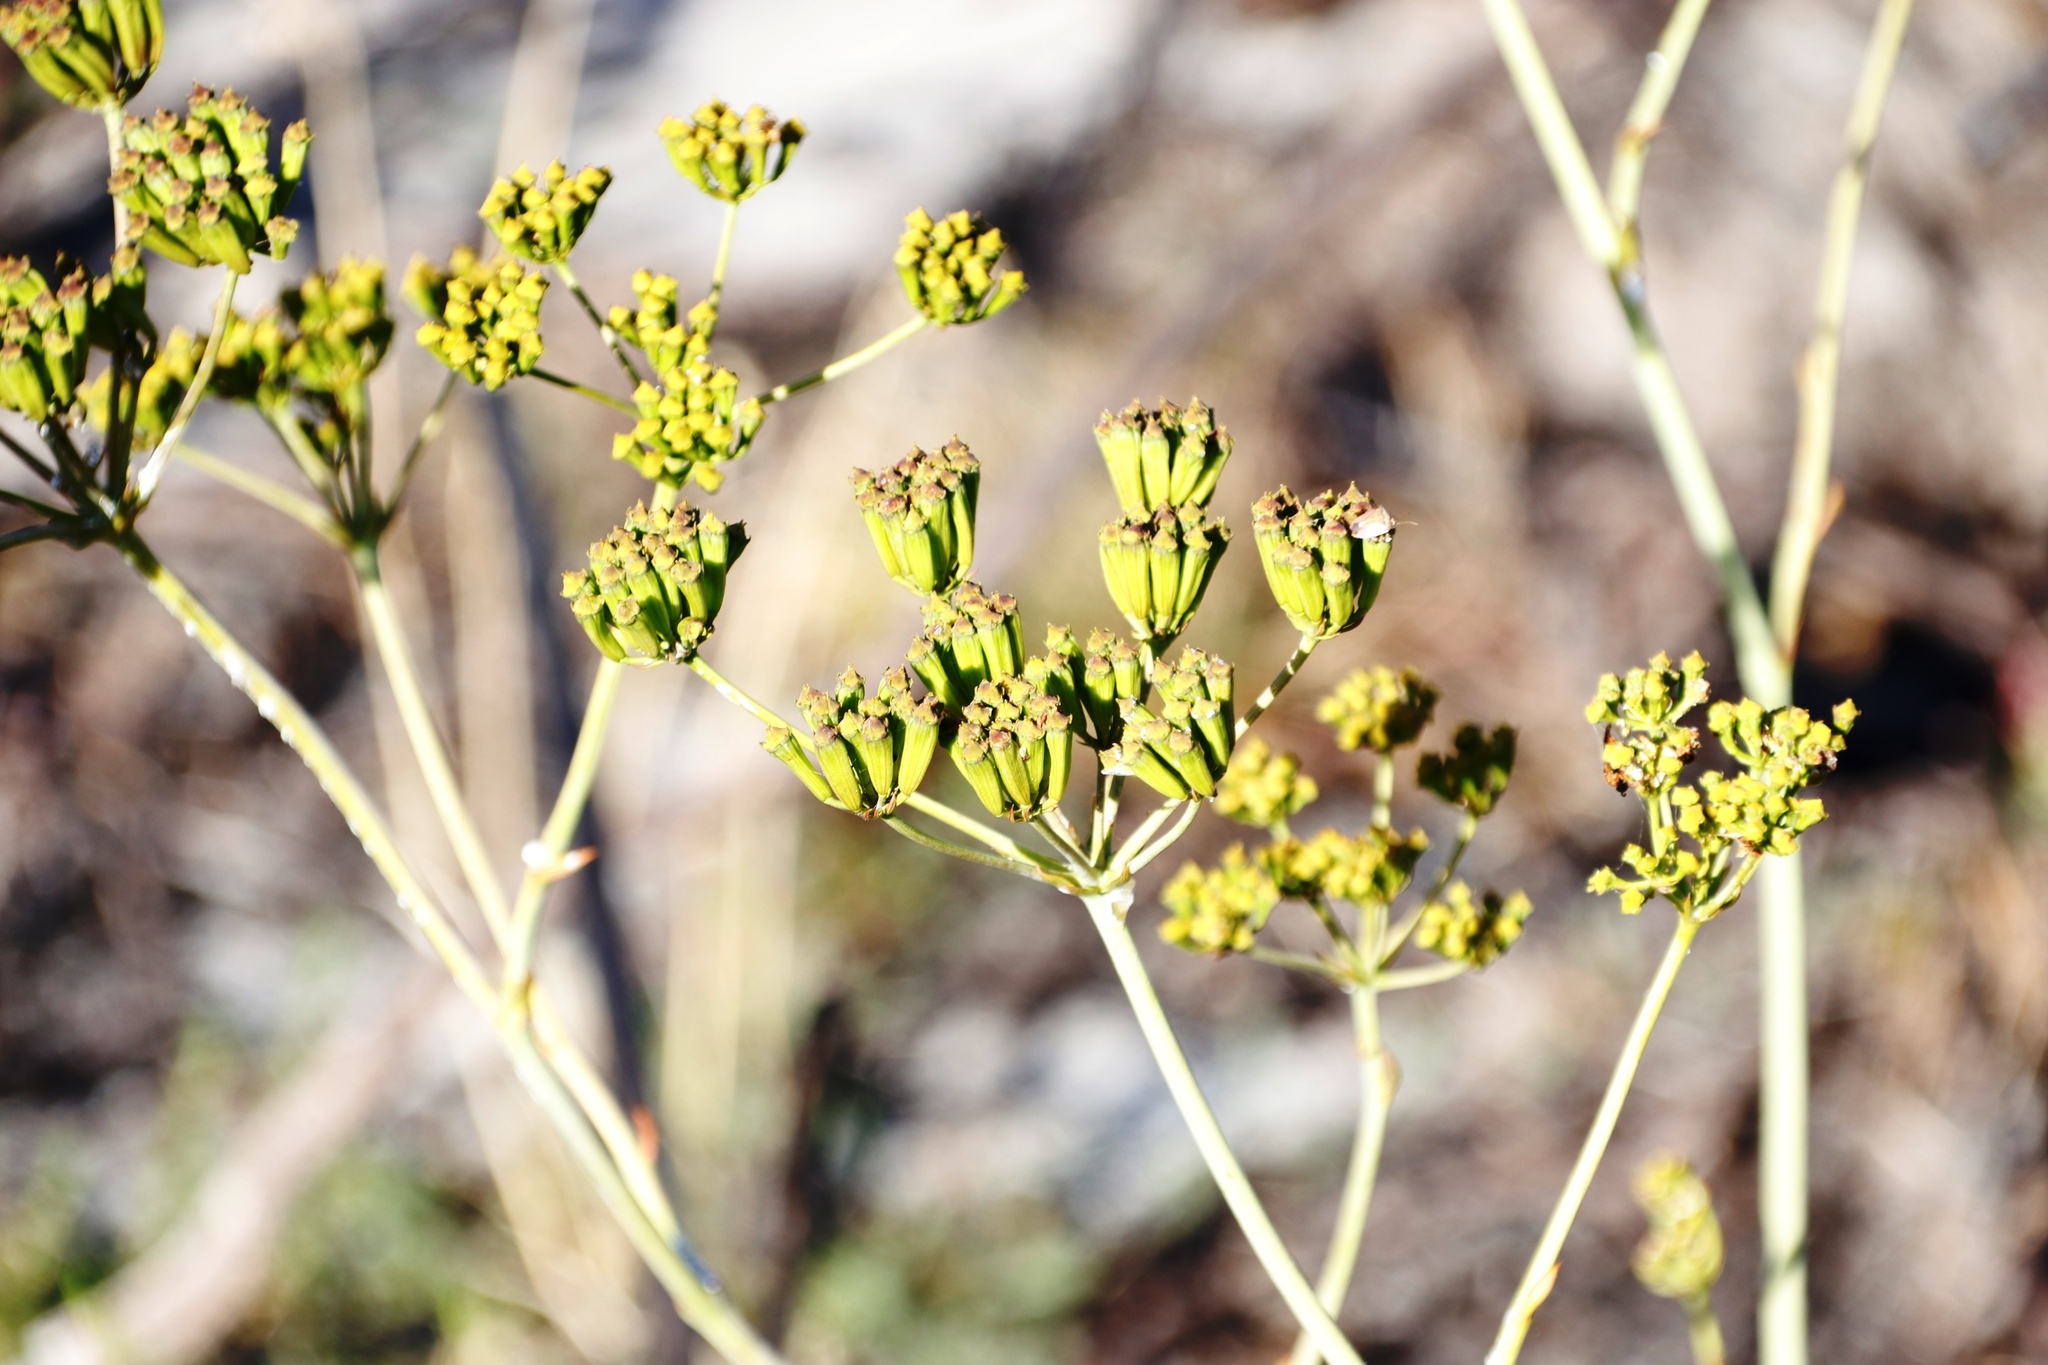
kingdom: Plantae
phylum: Tracheophyta
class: Magnoliopsida
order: Apiales
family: Apiaceae
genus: Lichtensteinia
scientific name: Lichtensteinia lacera
